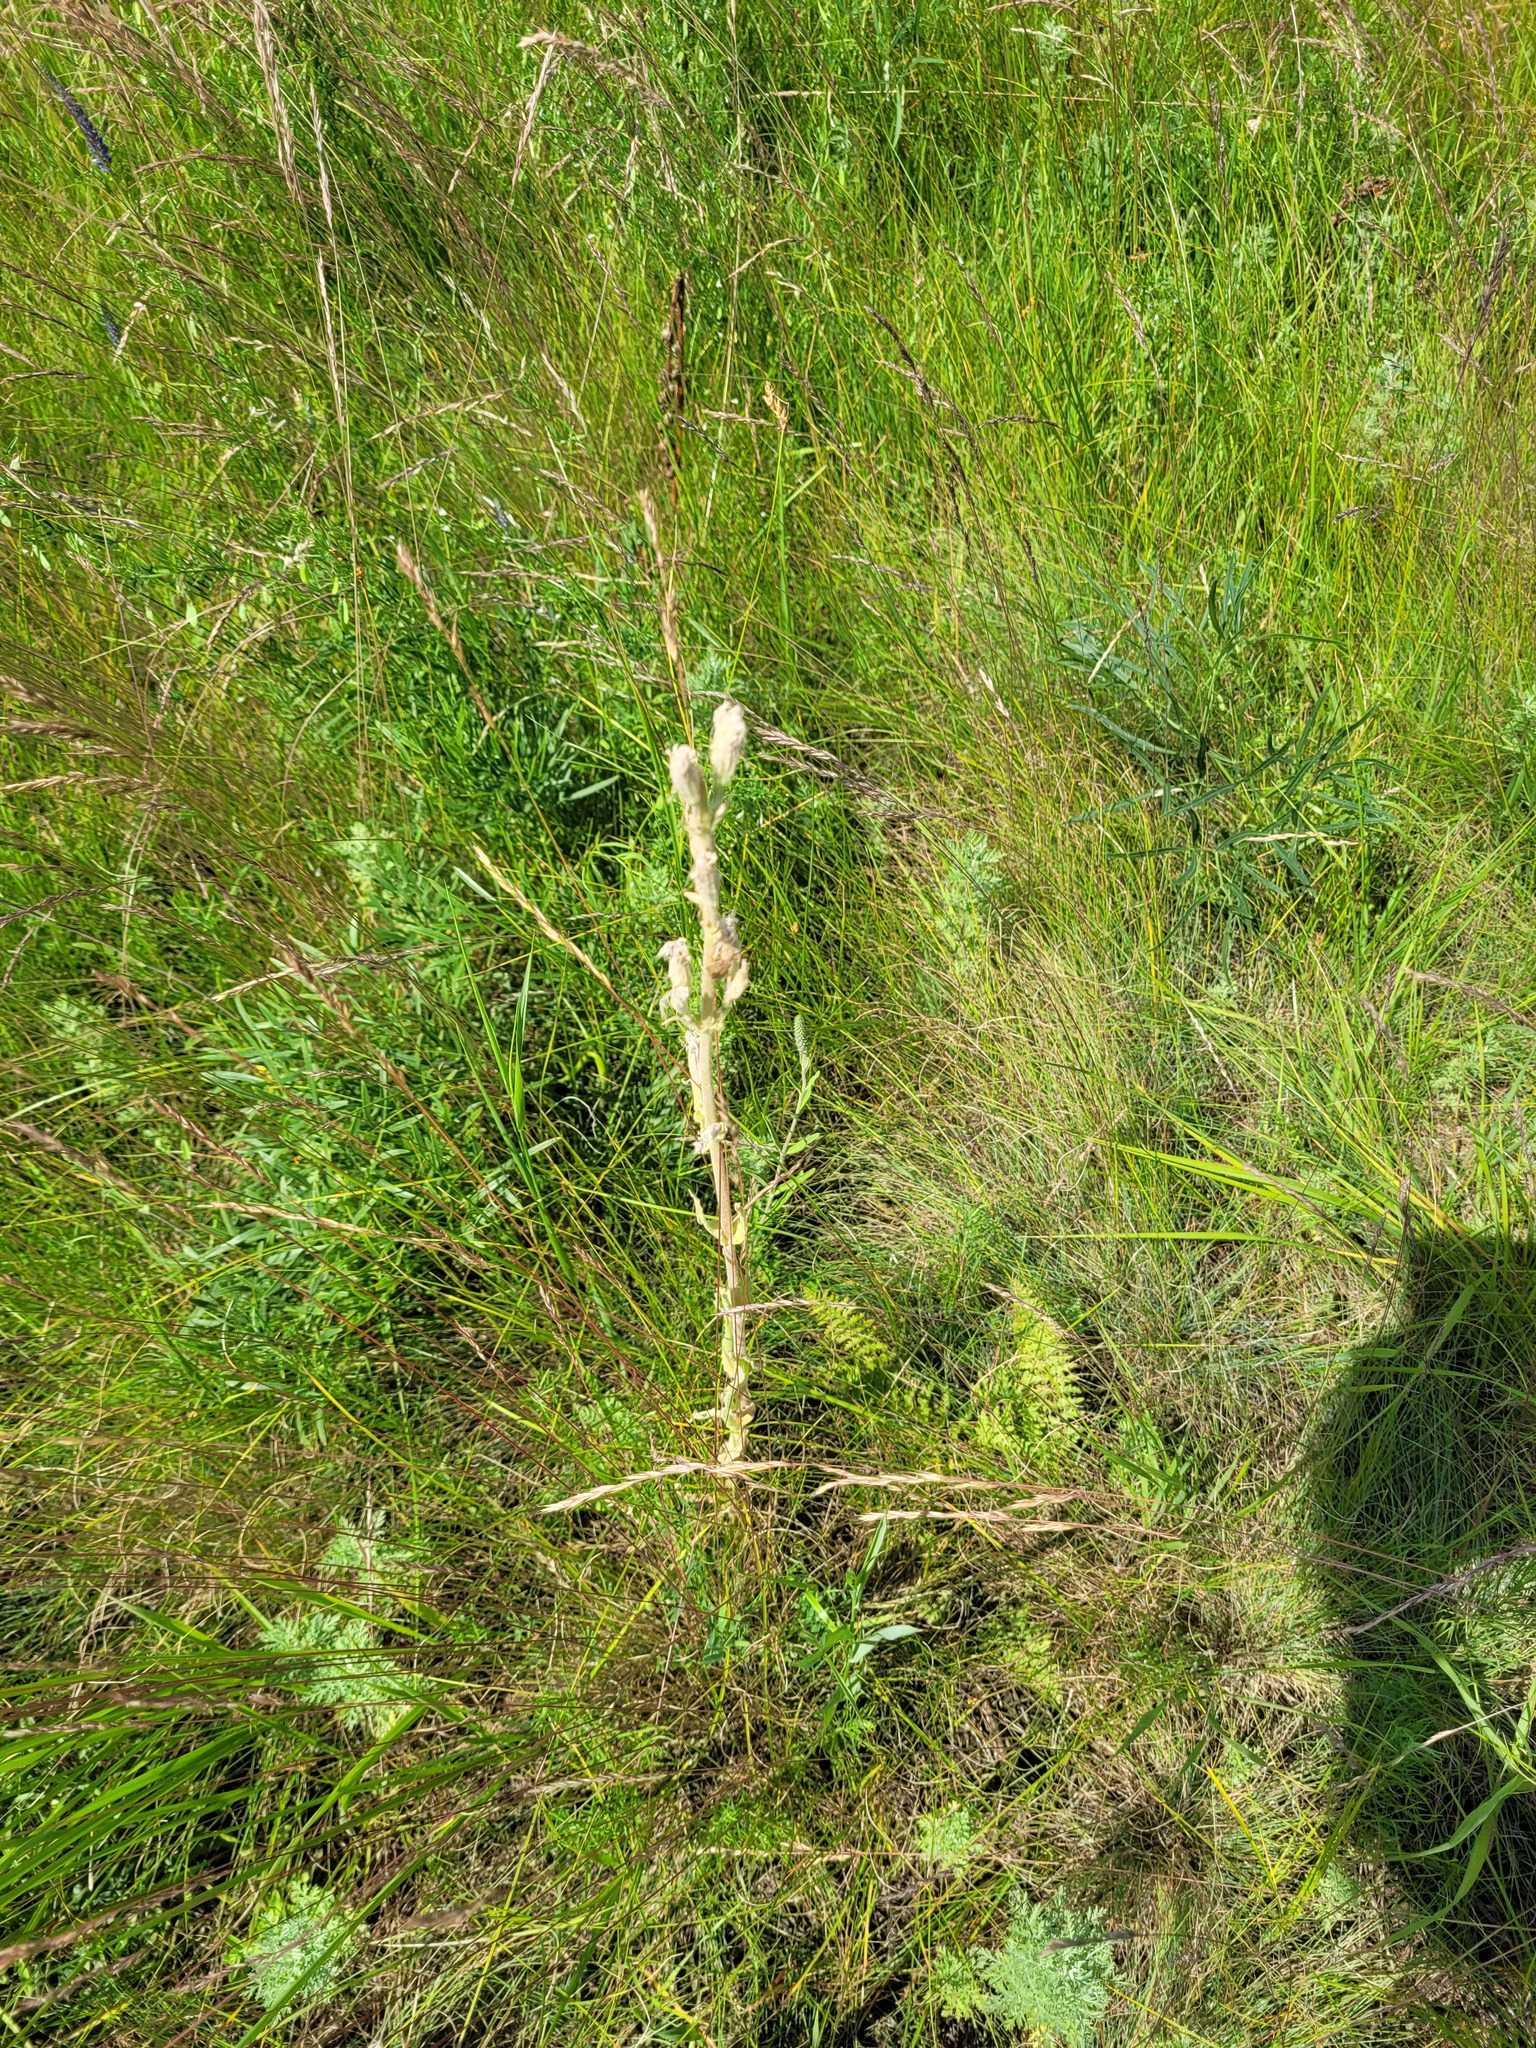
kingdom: Plantae
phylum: Tracheophyta
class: Magnoliopsida
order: Caryophyllales
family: Caryophyllaceae
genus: Silene
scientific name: Silene viscosa
